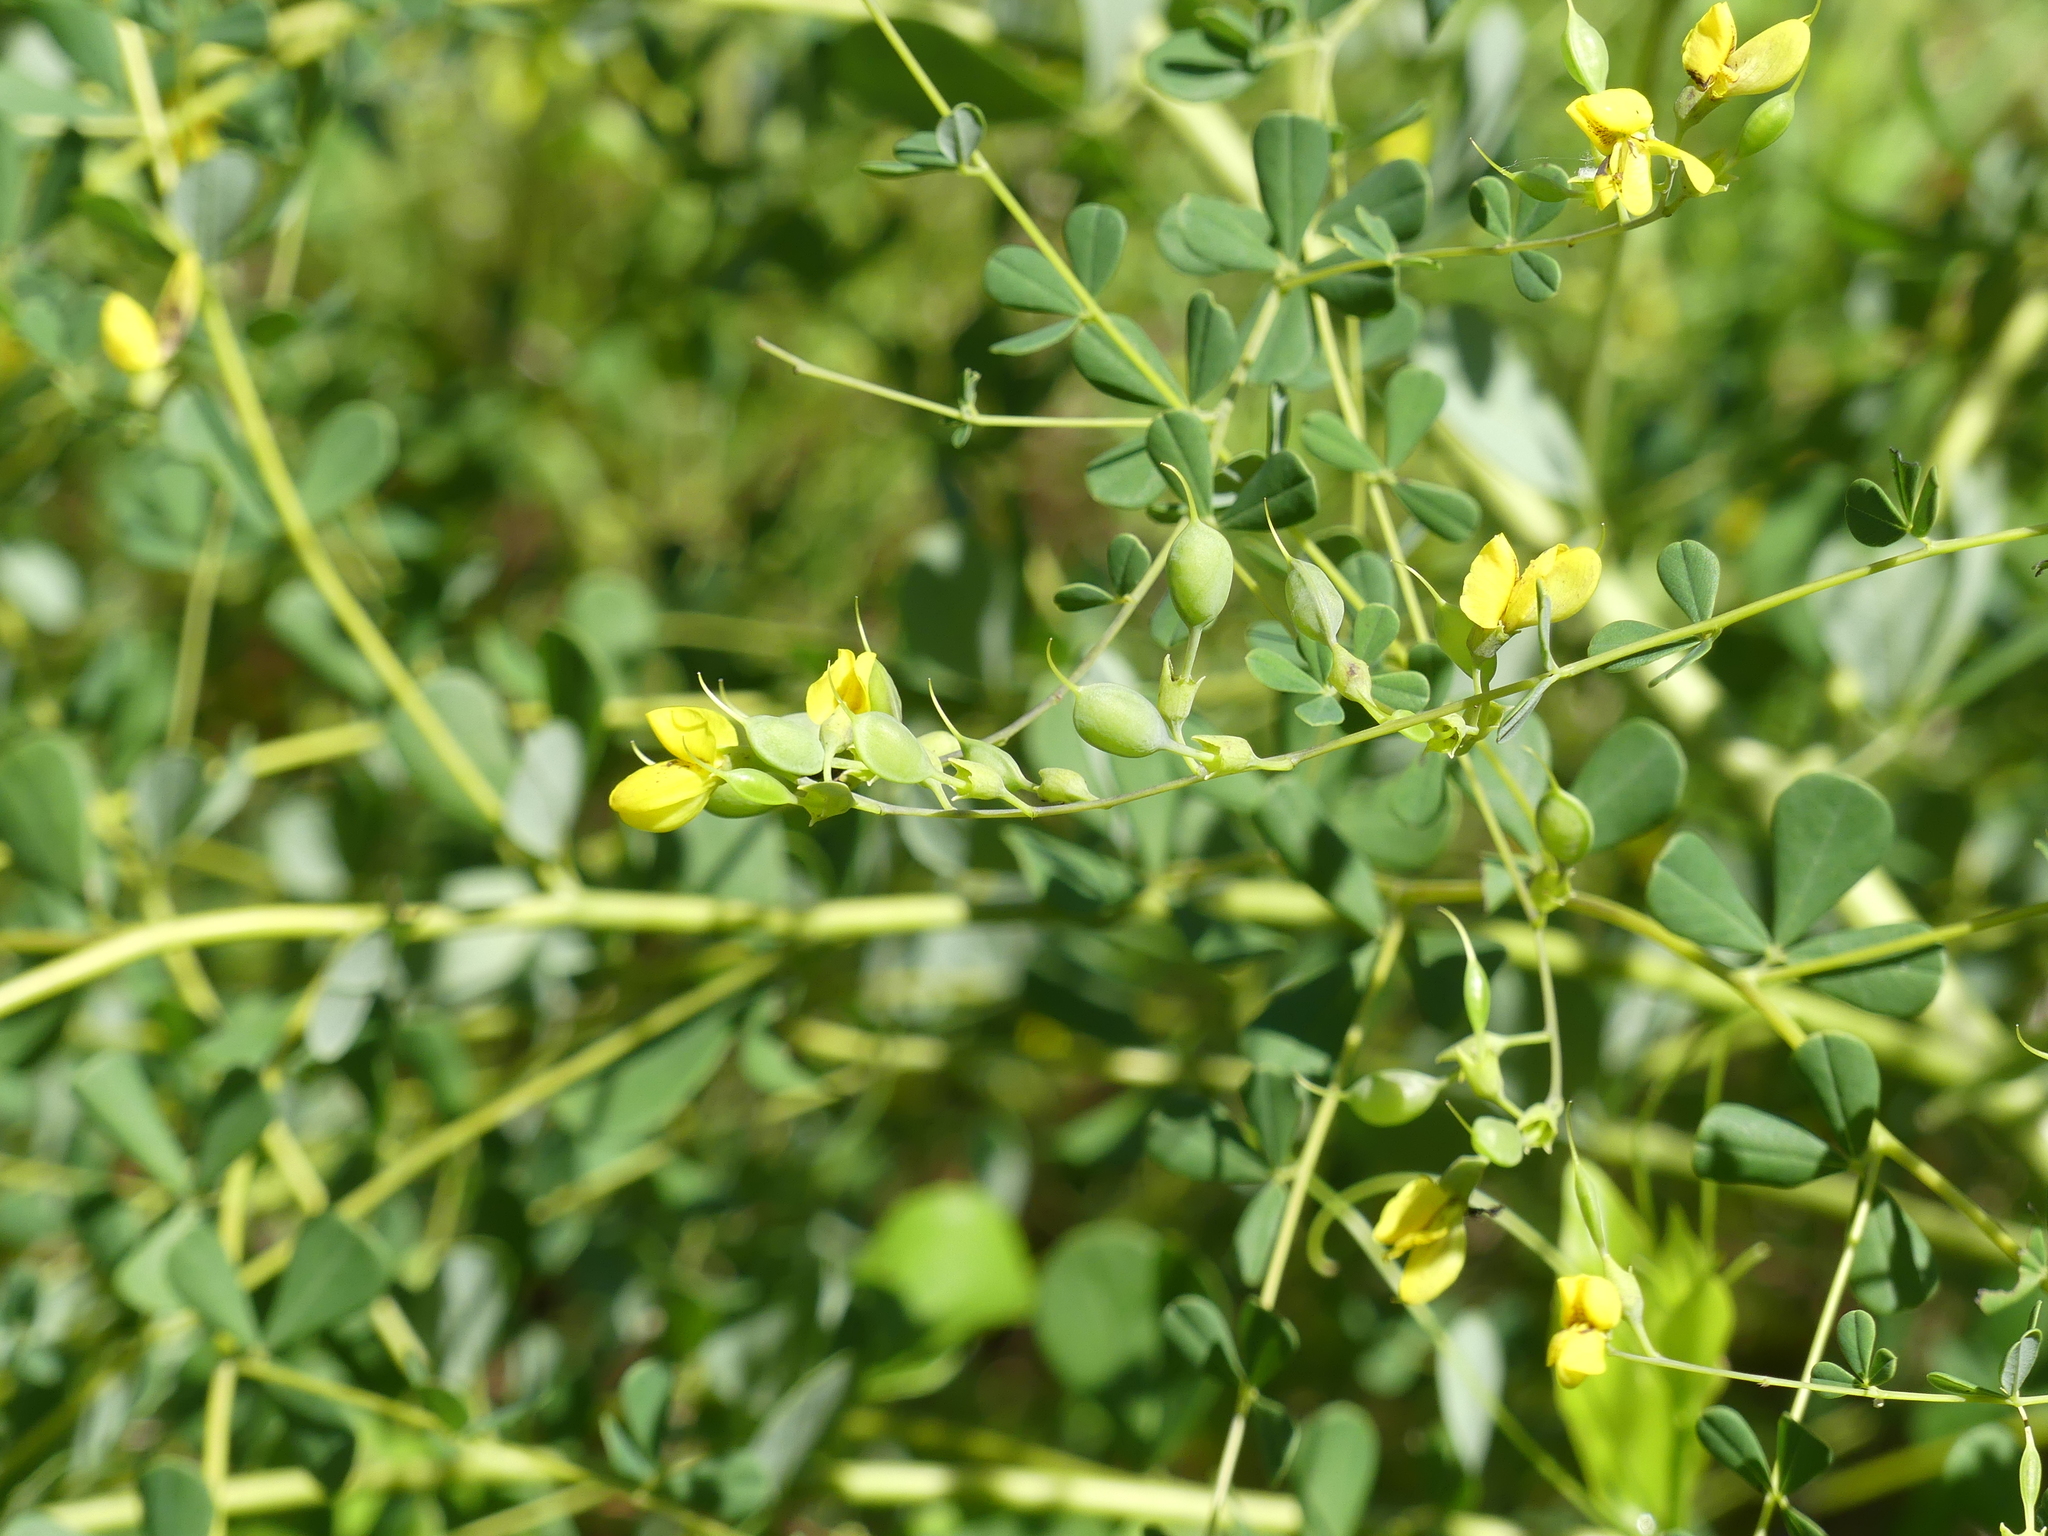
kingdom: Plantae
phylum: Tracheophyta
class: Magnoliopsida
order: Fabales
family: Fabaceae
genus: Baptisia
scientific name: Baptisia tinctoria
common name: Wild indigo
